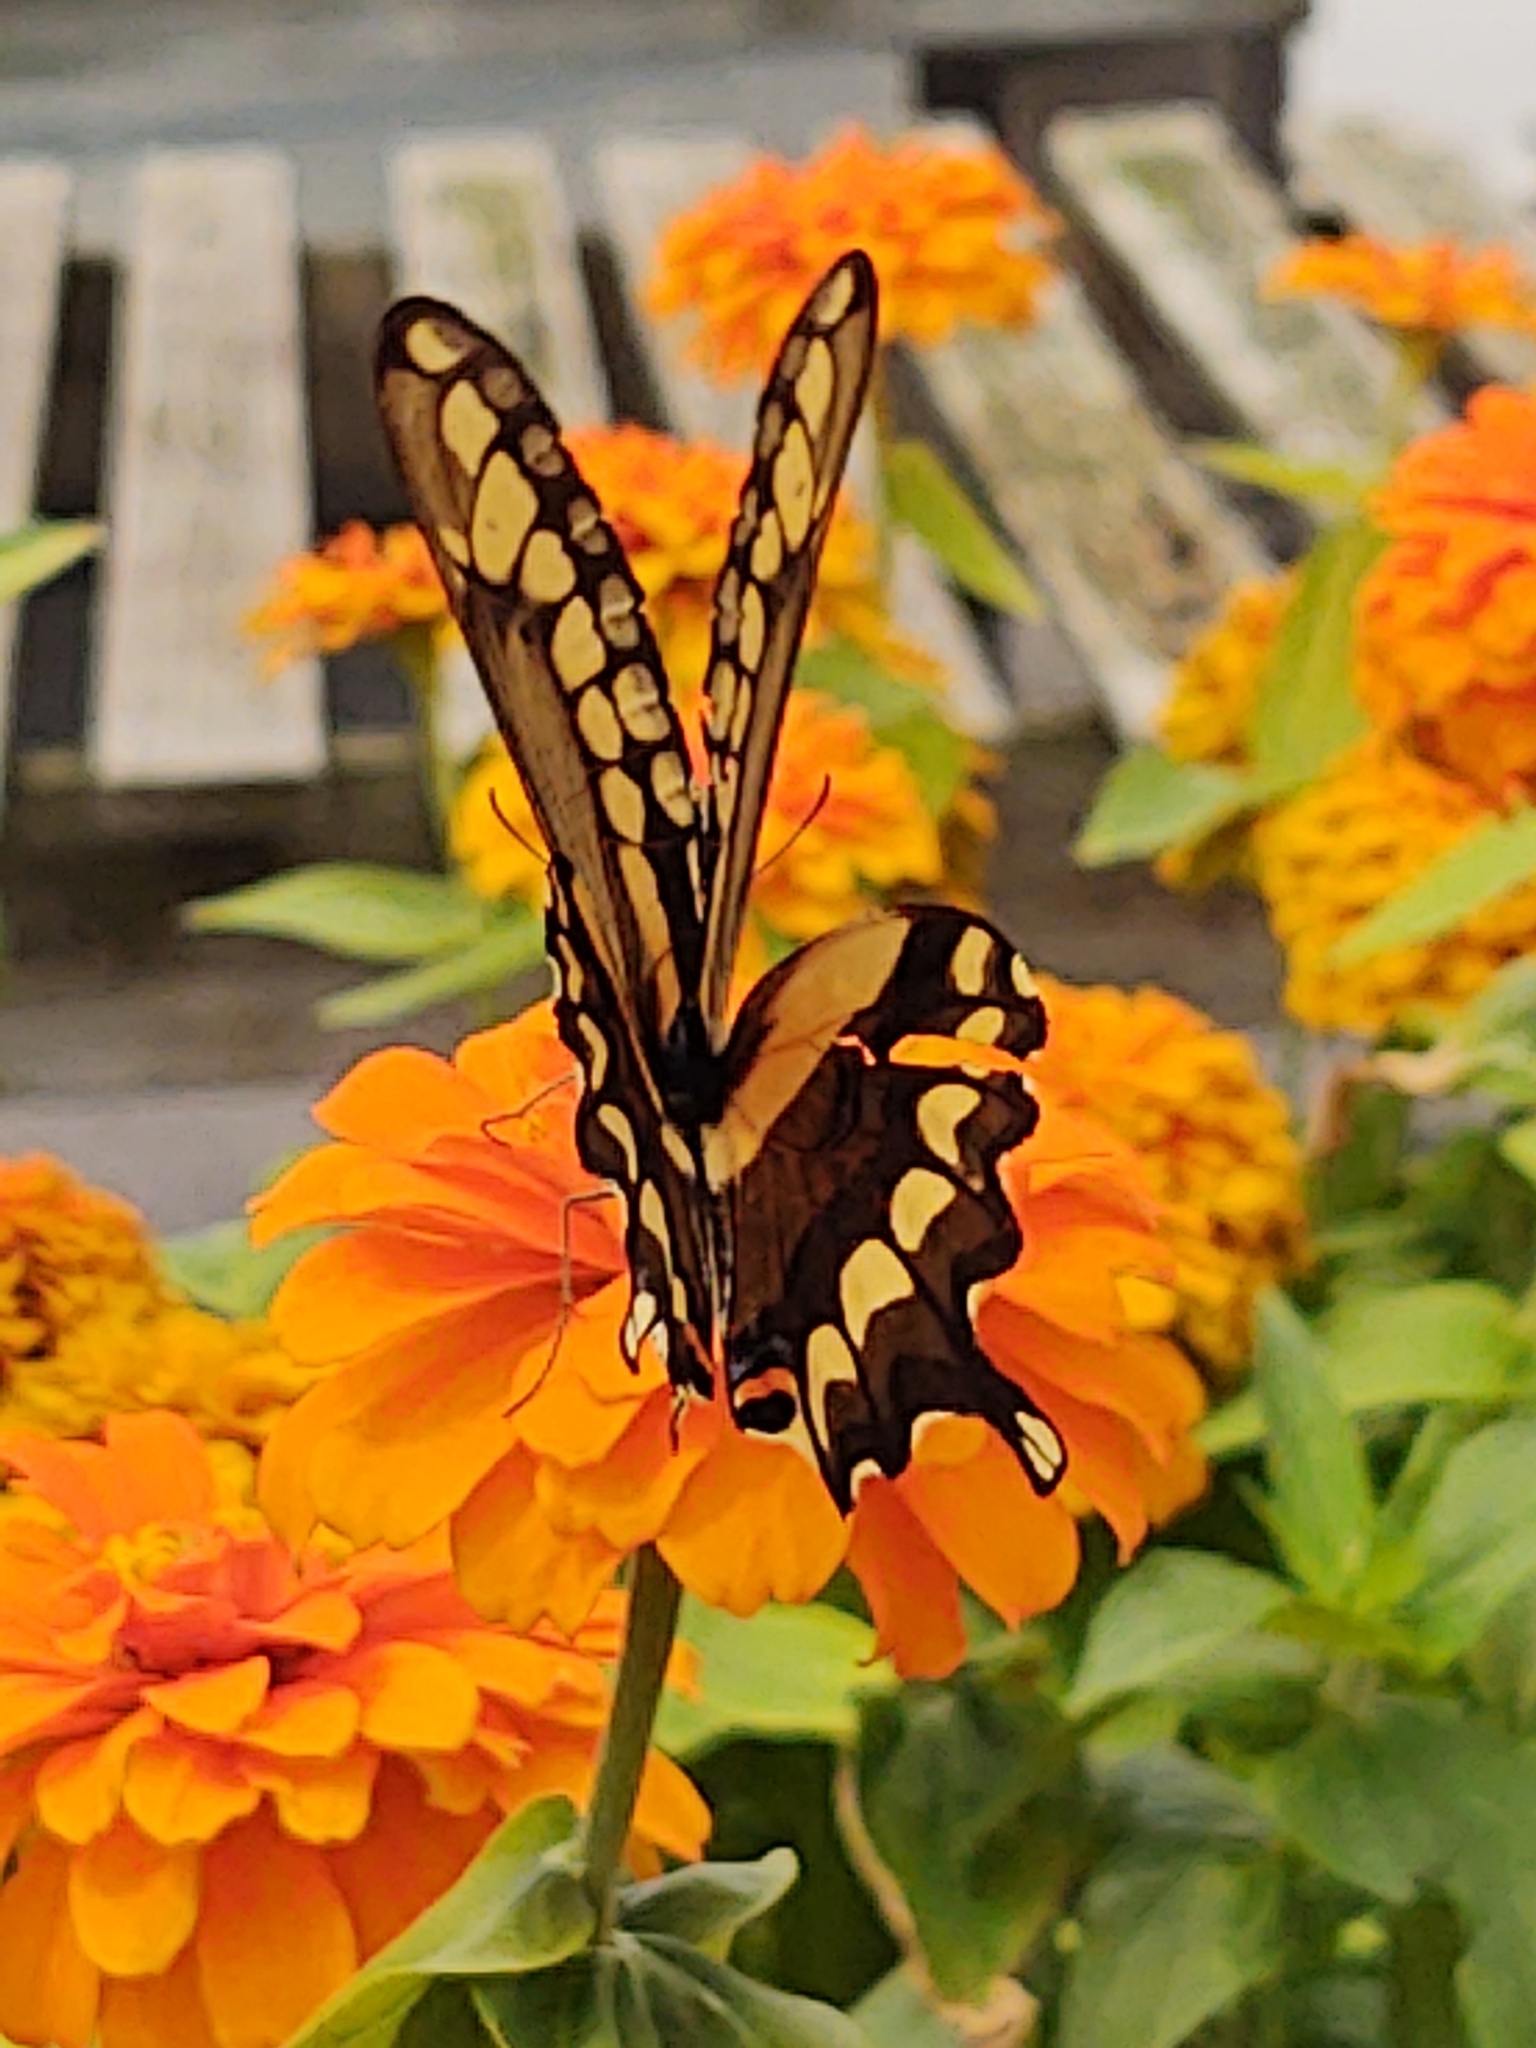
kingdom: Animalia
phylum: Arthropoda
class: Insecta
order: Lepidoptera
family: Papilionidae
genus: Papilio
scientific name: Papilio cresphontes
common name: Giant swallowtail
